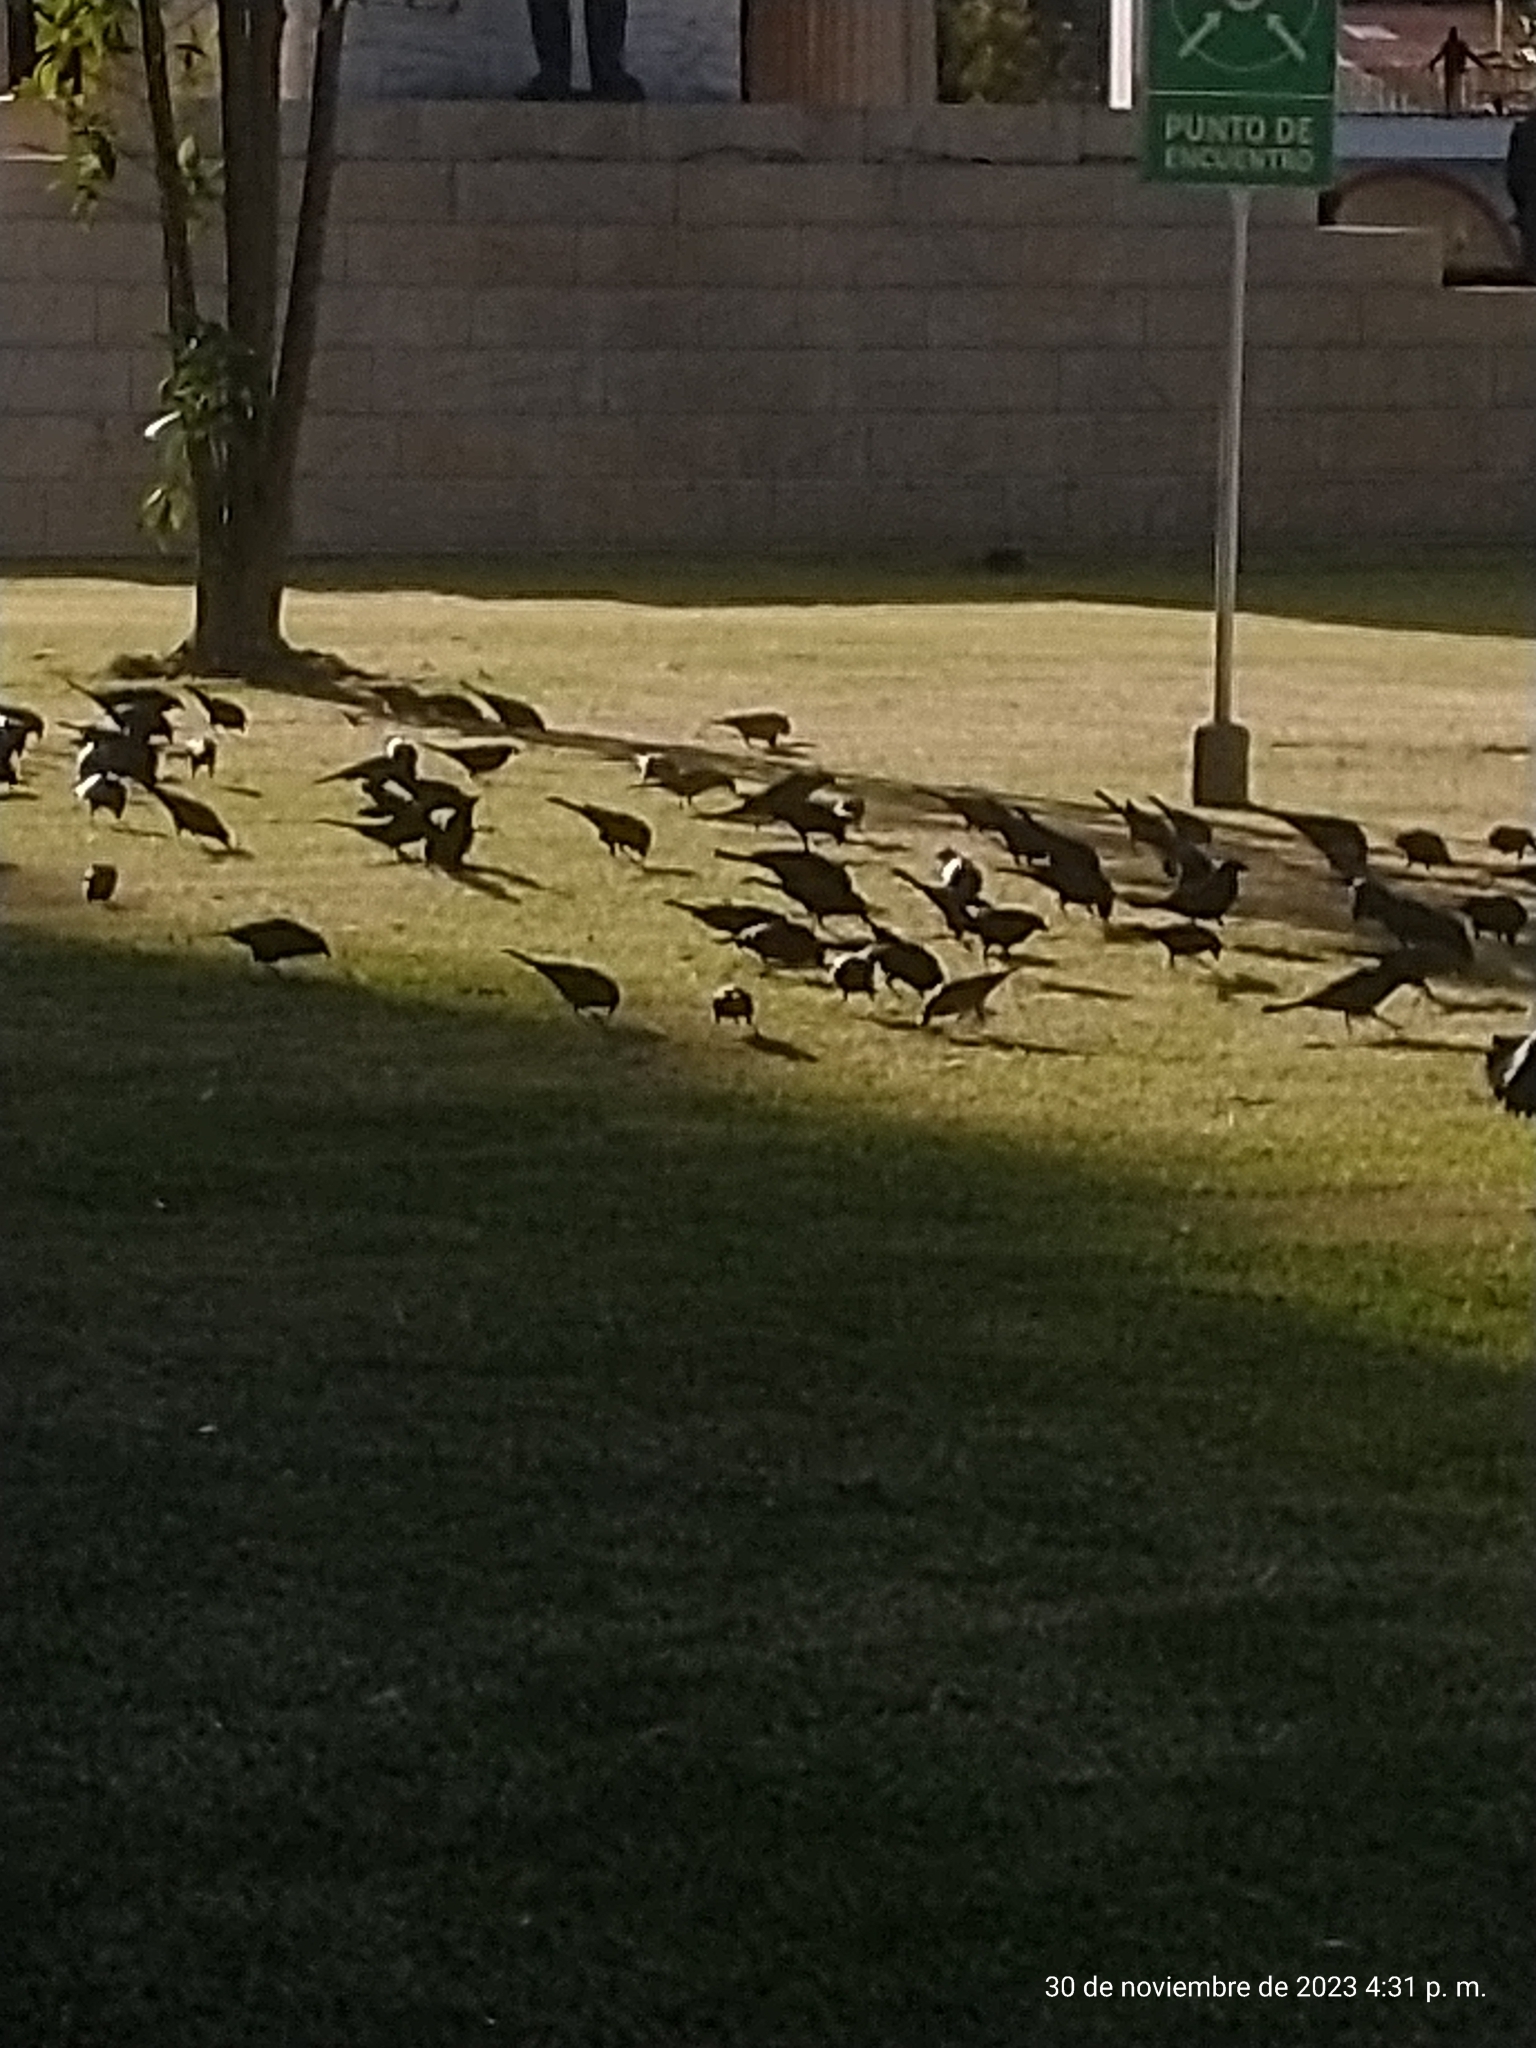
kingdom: Animalia
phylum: Chordata
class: Aves
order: Passeriformes
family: Icteridae
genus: Molothrus
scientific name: Molothrus bonariensis
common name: Shiny cowbird
